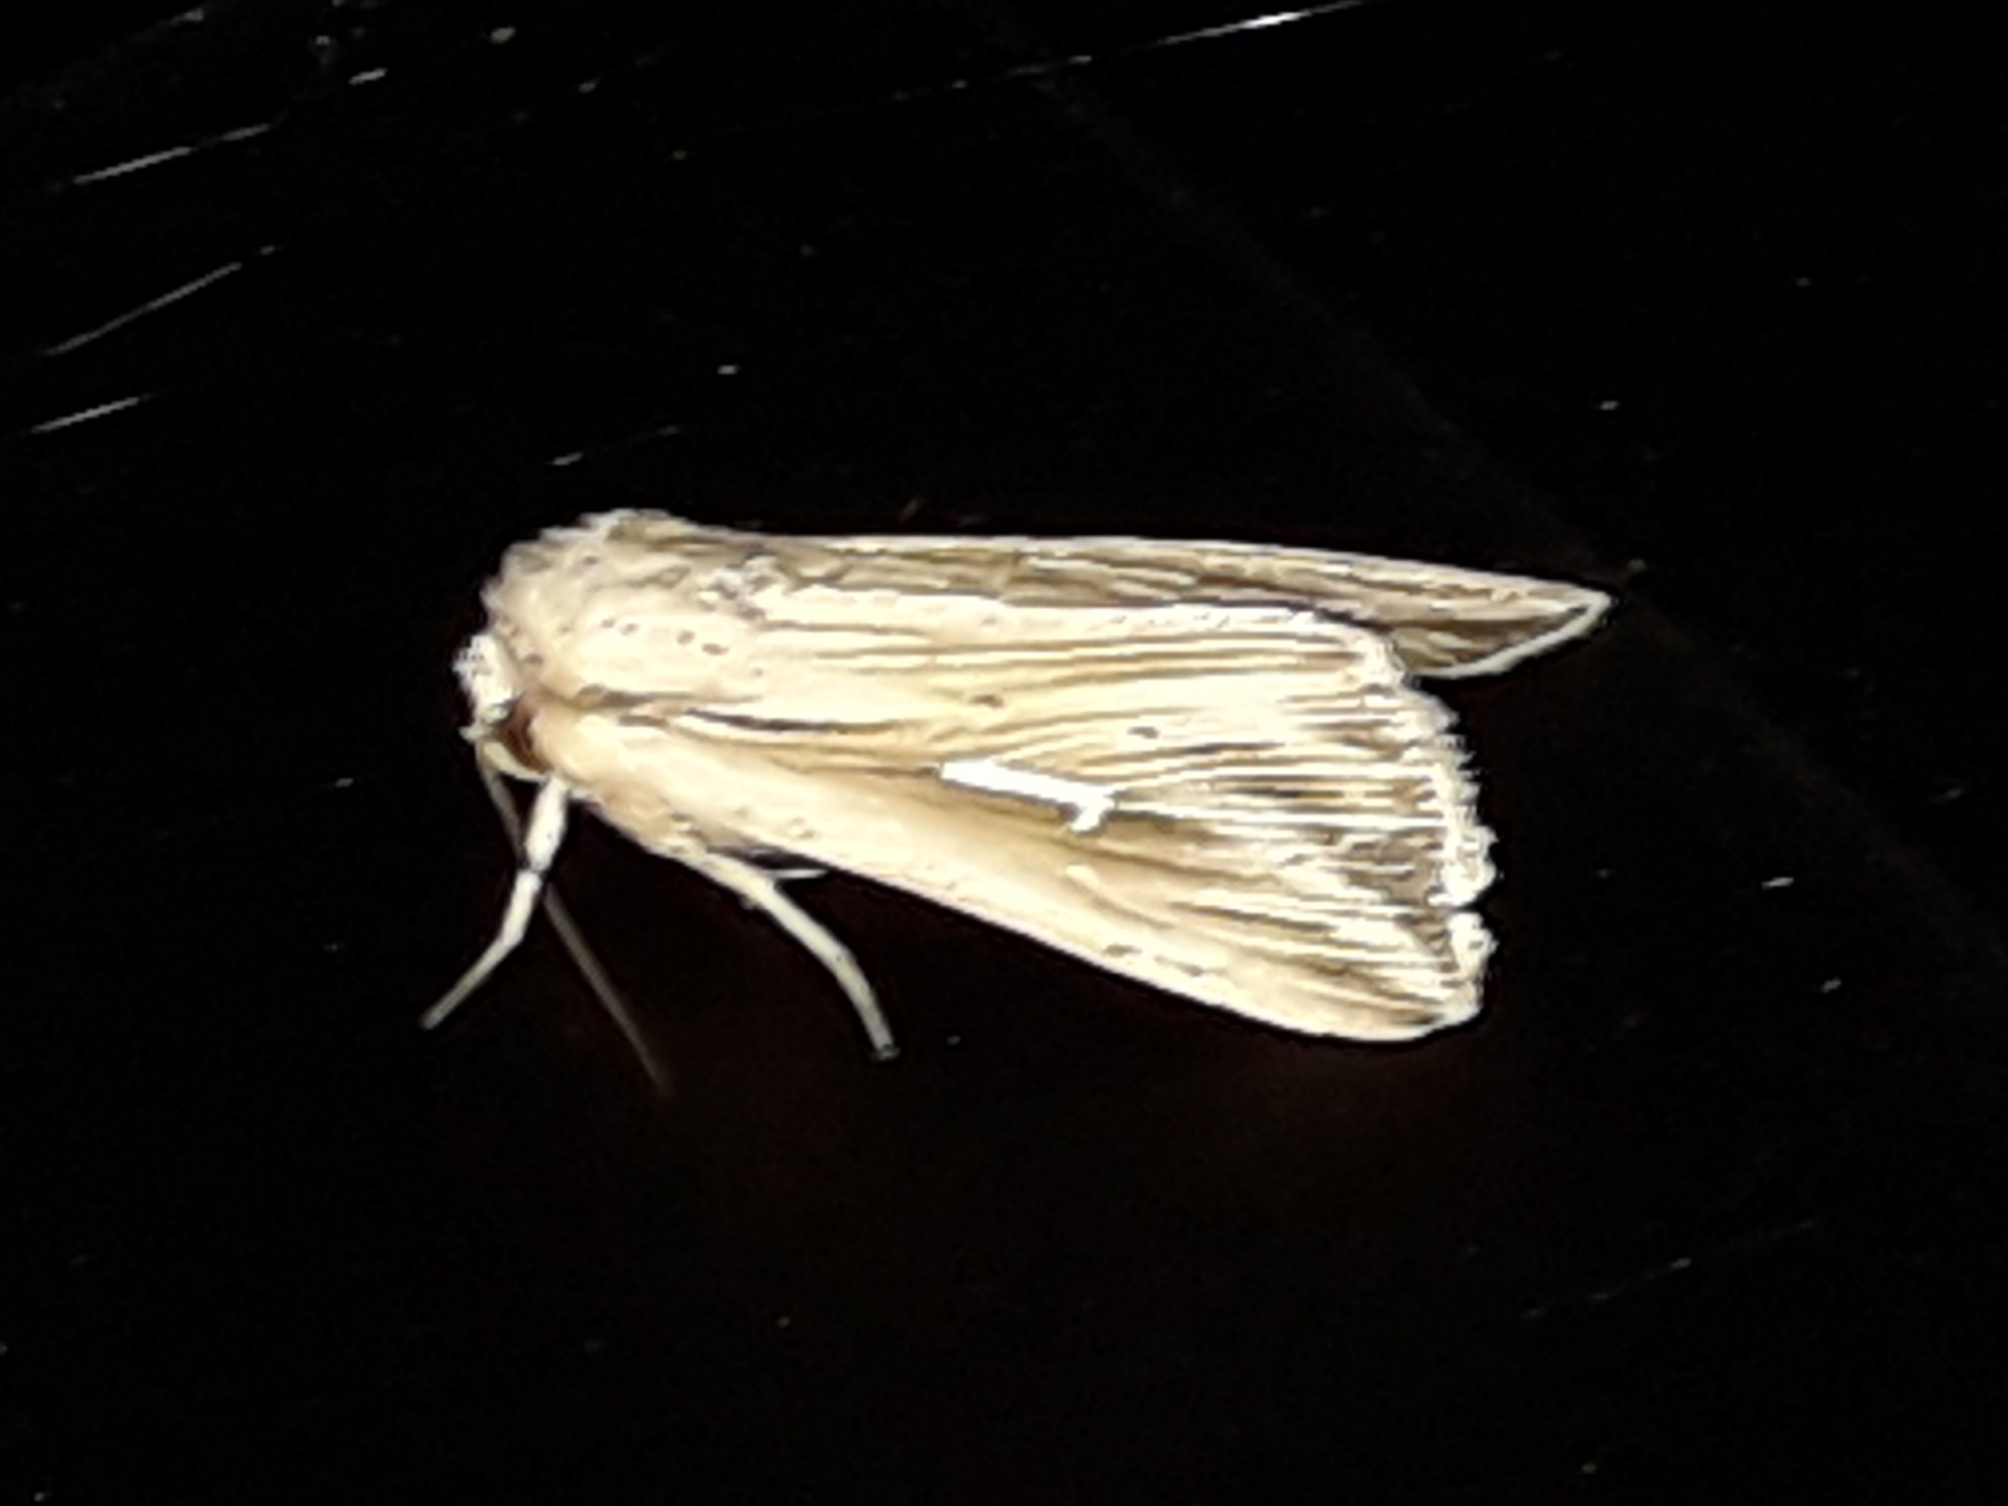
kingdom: Animalia
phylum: Arthropoda
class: Insecta
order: Lepidoptera
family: Noctuidae
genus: Mythimna
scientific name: Mythimna l-album
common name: L-album wainscot
